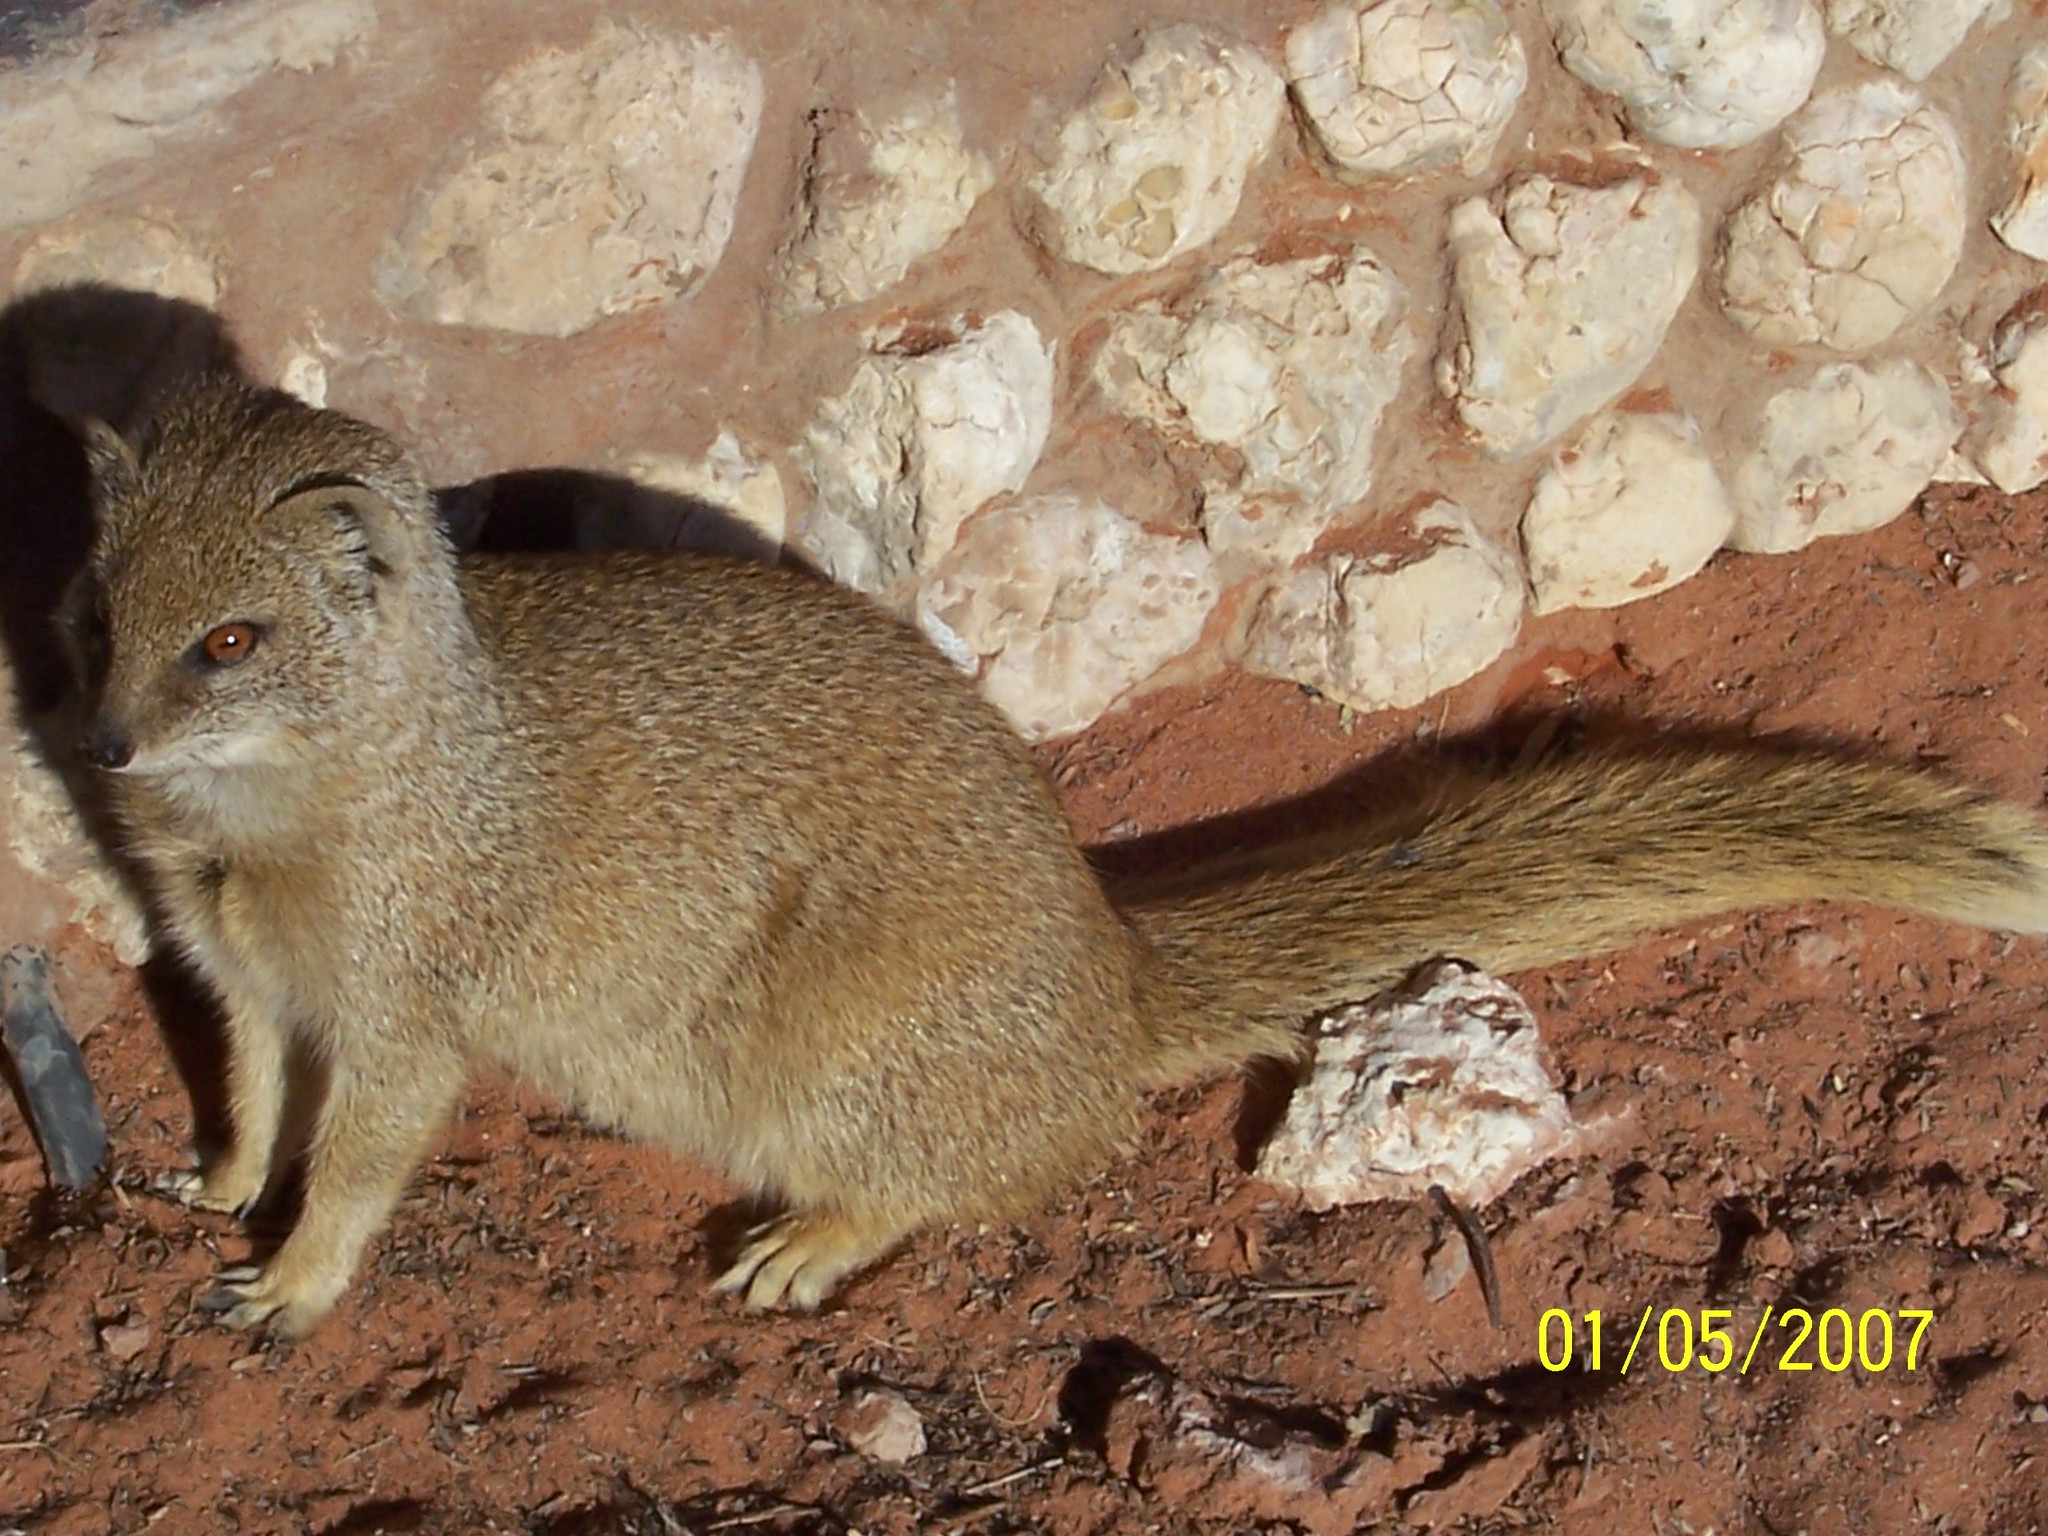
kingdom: Animalia
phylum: Chordata
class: Mammalia
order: Carnivora
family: Herpestidae
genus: Cynictis
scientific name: Cynictis penicillata
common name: Yellow mongoose
